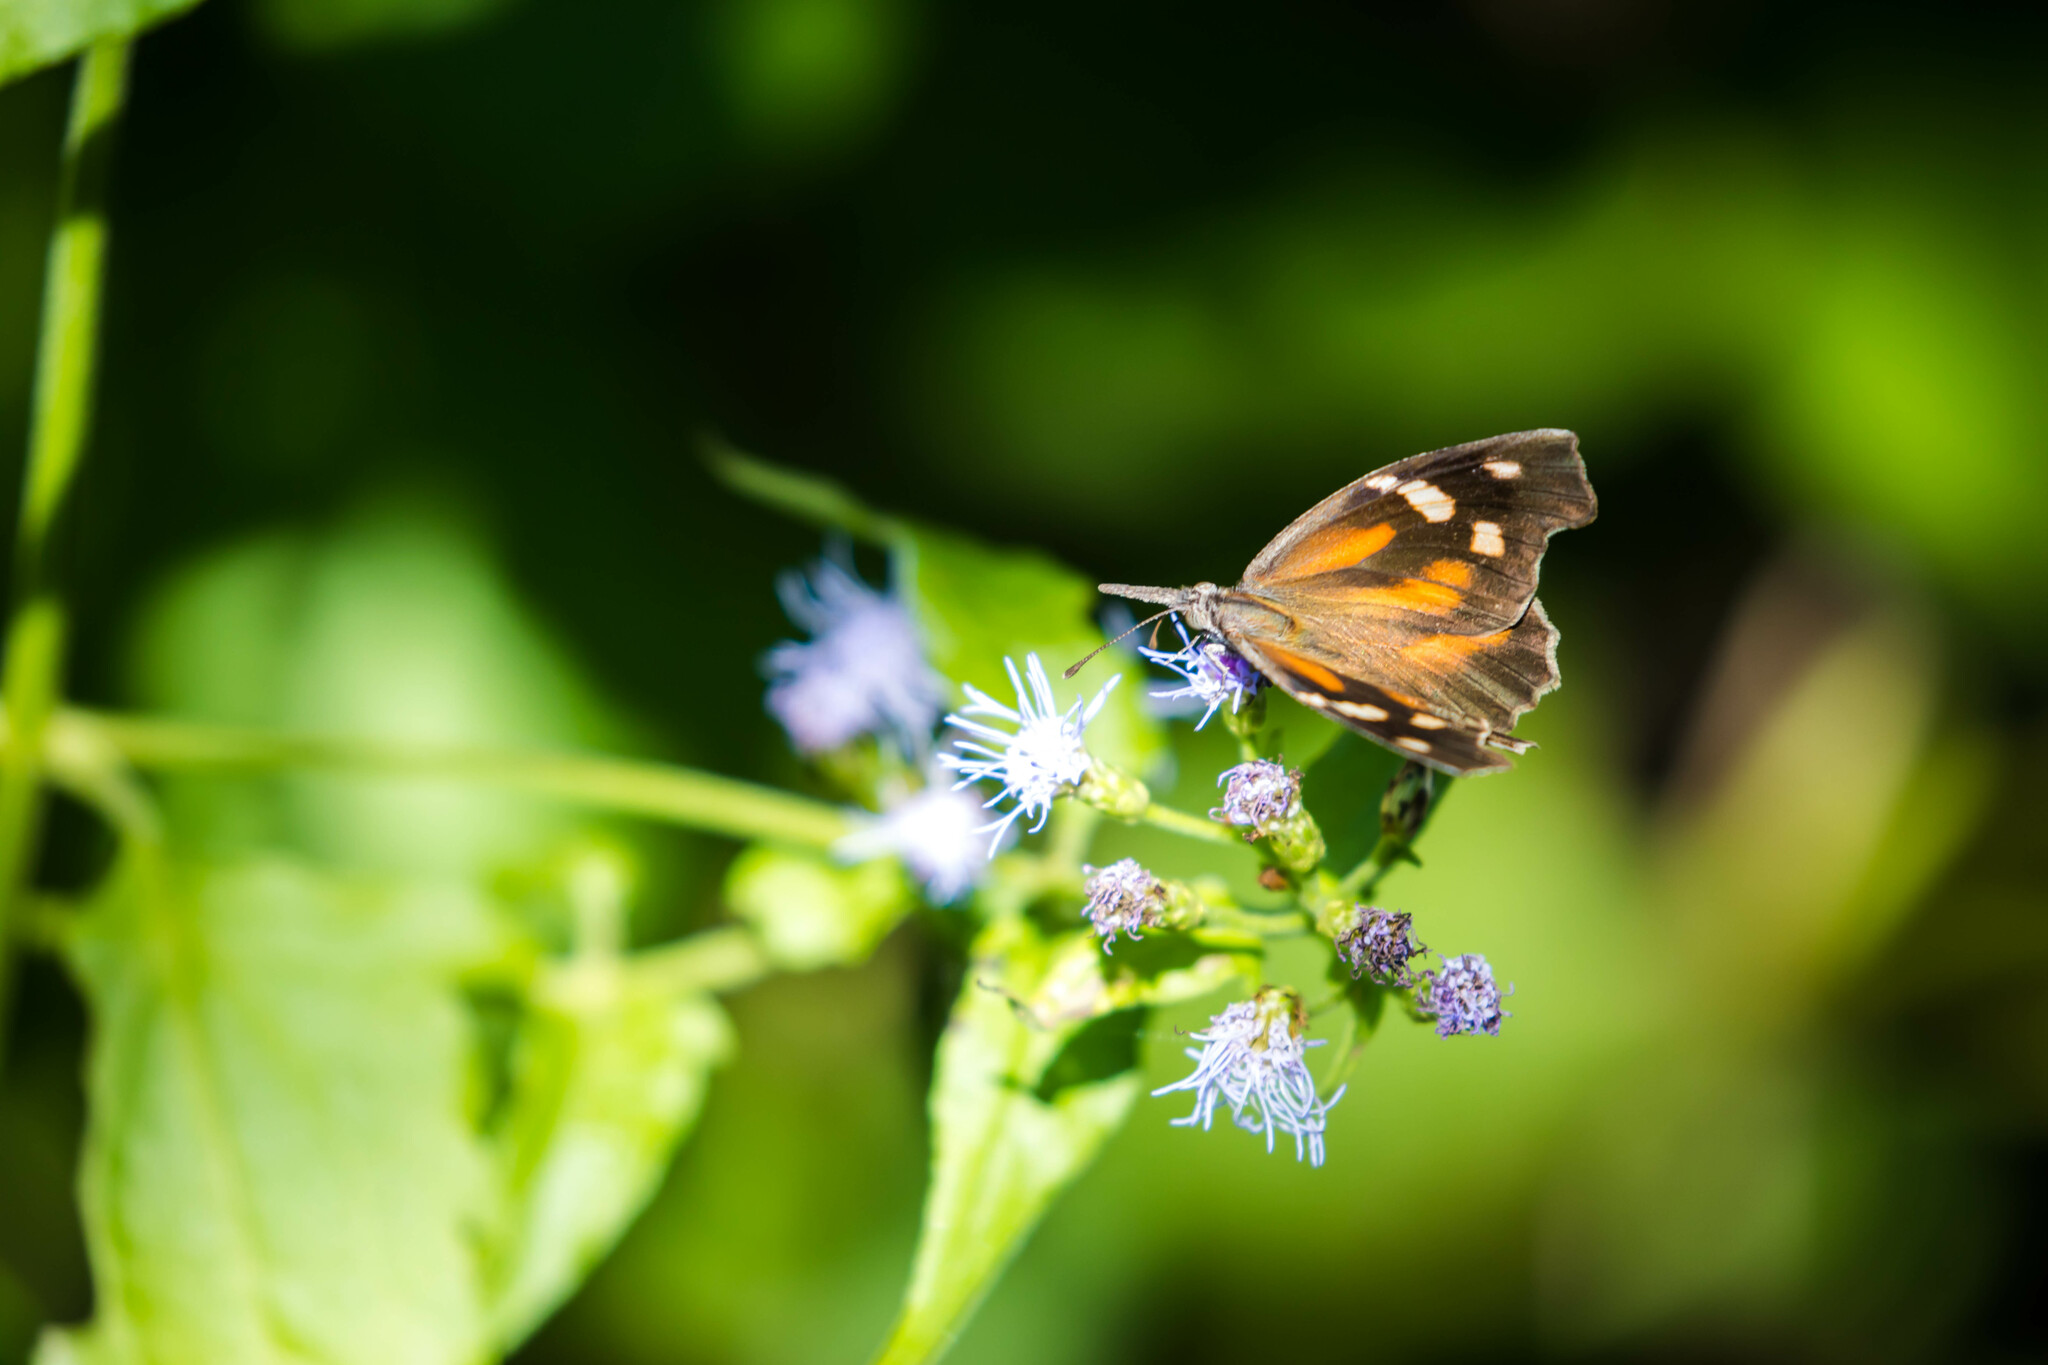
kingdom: Animalia
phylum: Arthropoda
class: Insecta
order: Lepidoptera
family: Nymphalidae
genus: Libytheana
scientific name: Libytheana carinenta
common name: American snout
